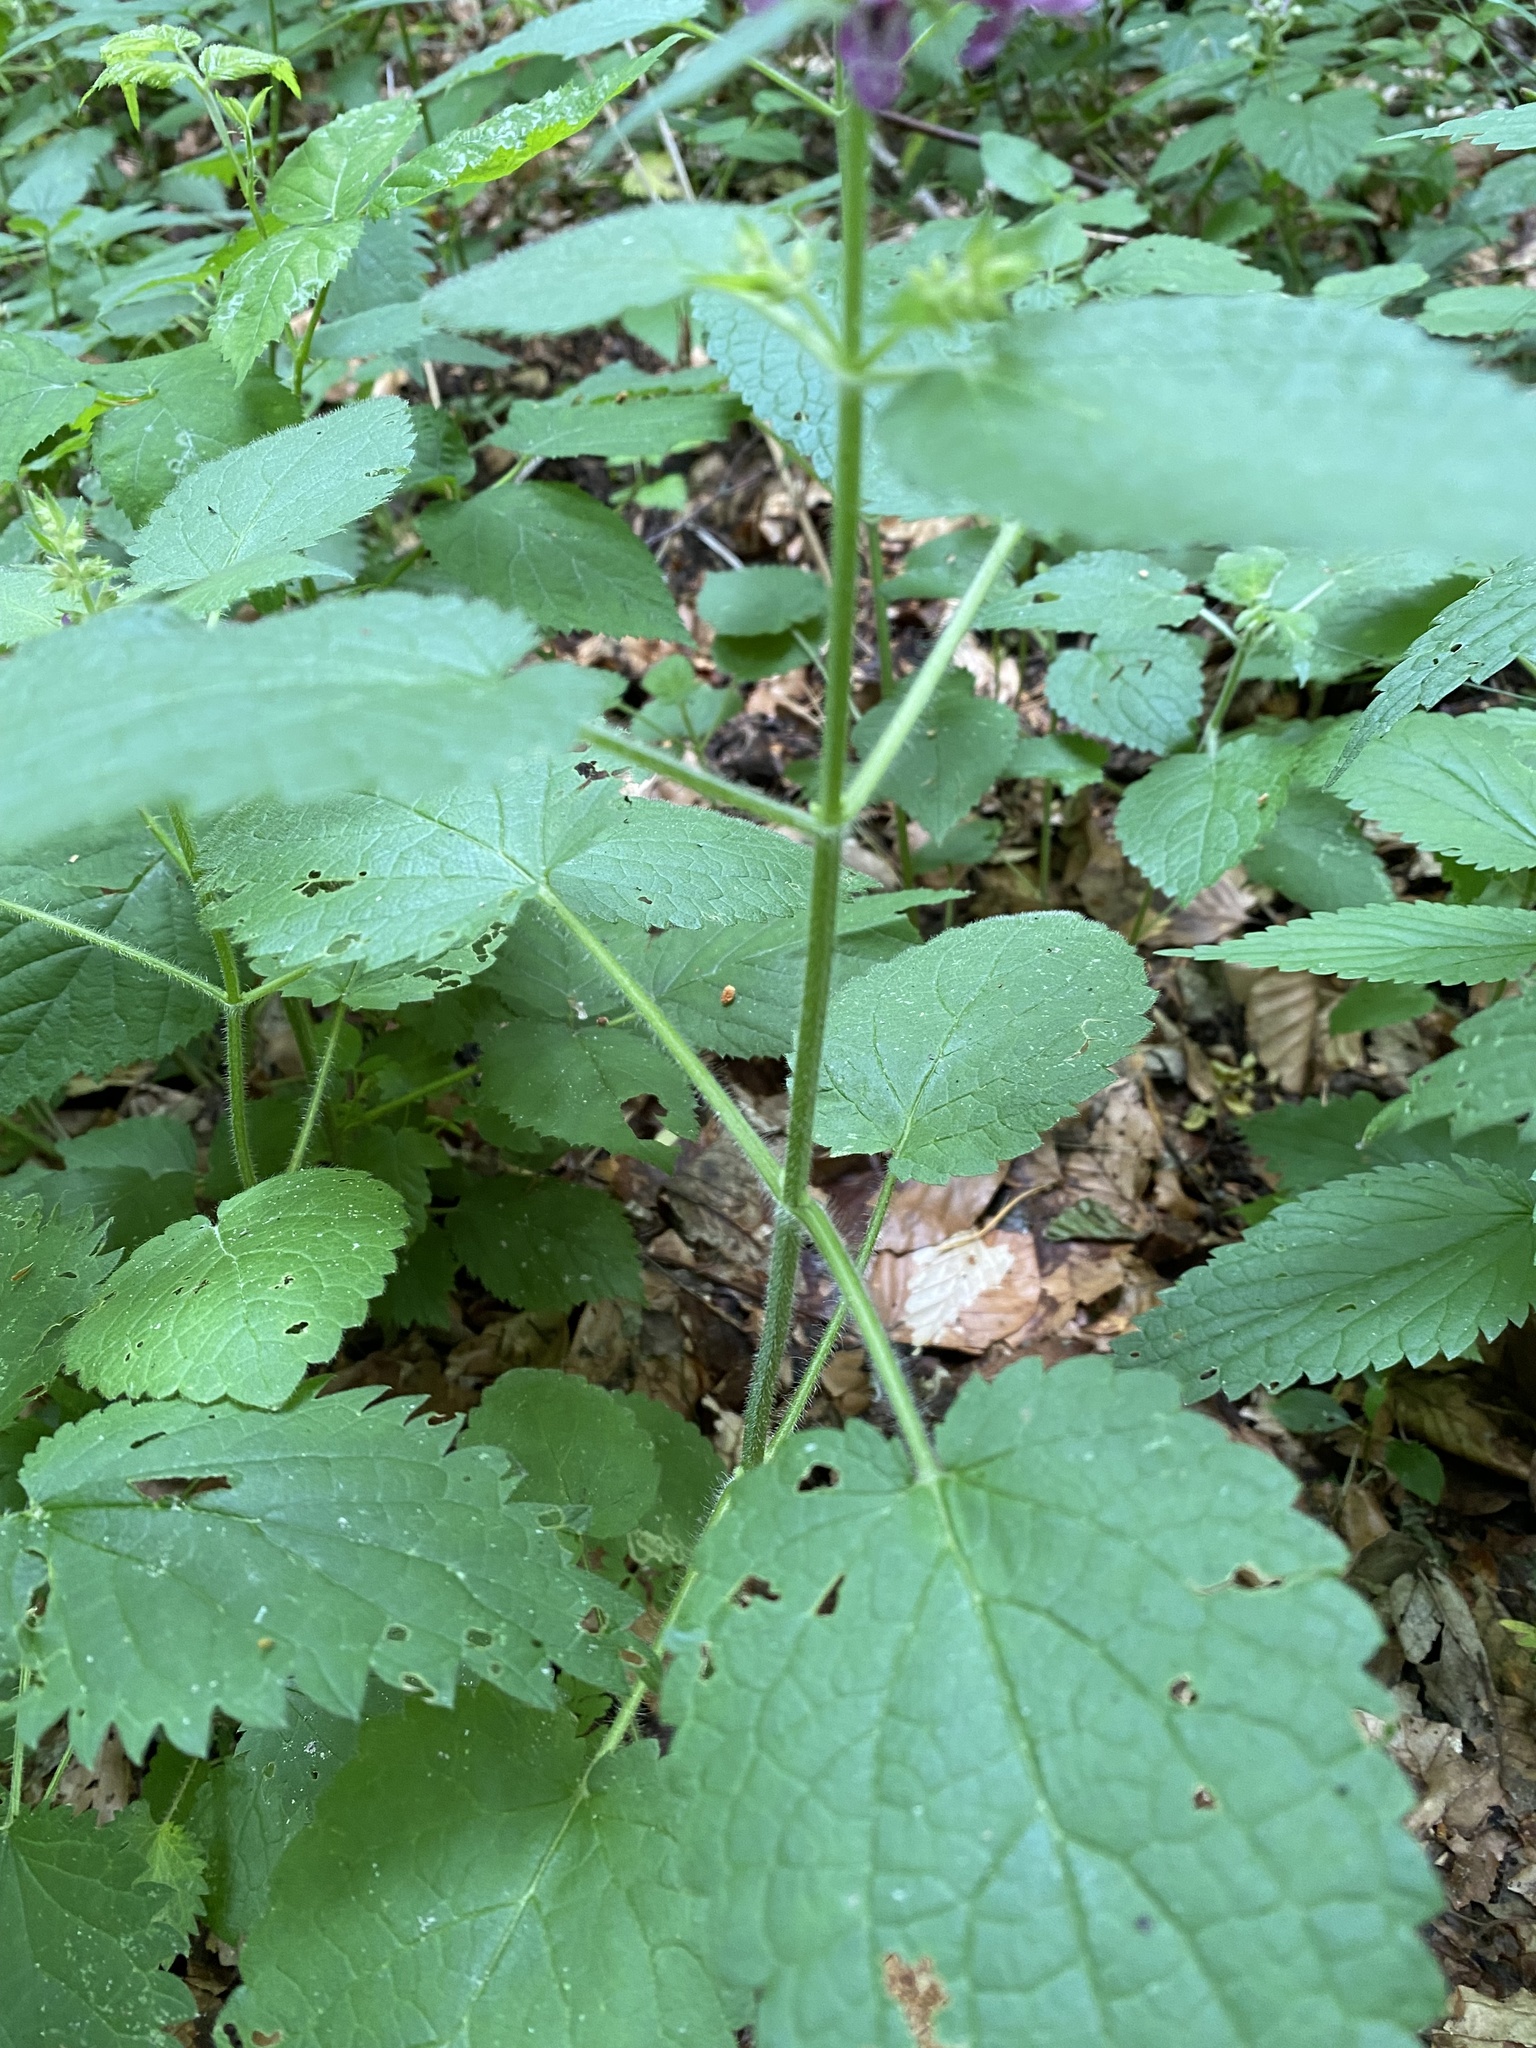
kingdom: Plantae
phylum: Tracheophyta
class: Magnoliopsida
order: Lamiales
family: Lamiaceae
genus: Stachys
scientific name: Stachys sylvatica
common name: Hedge woundwort
